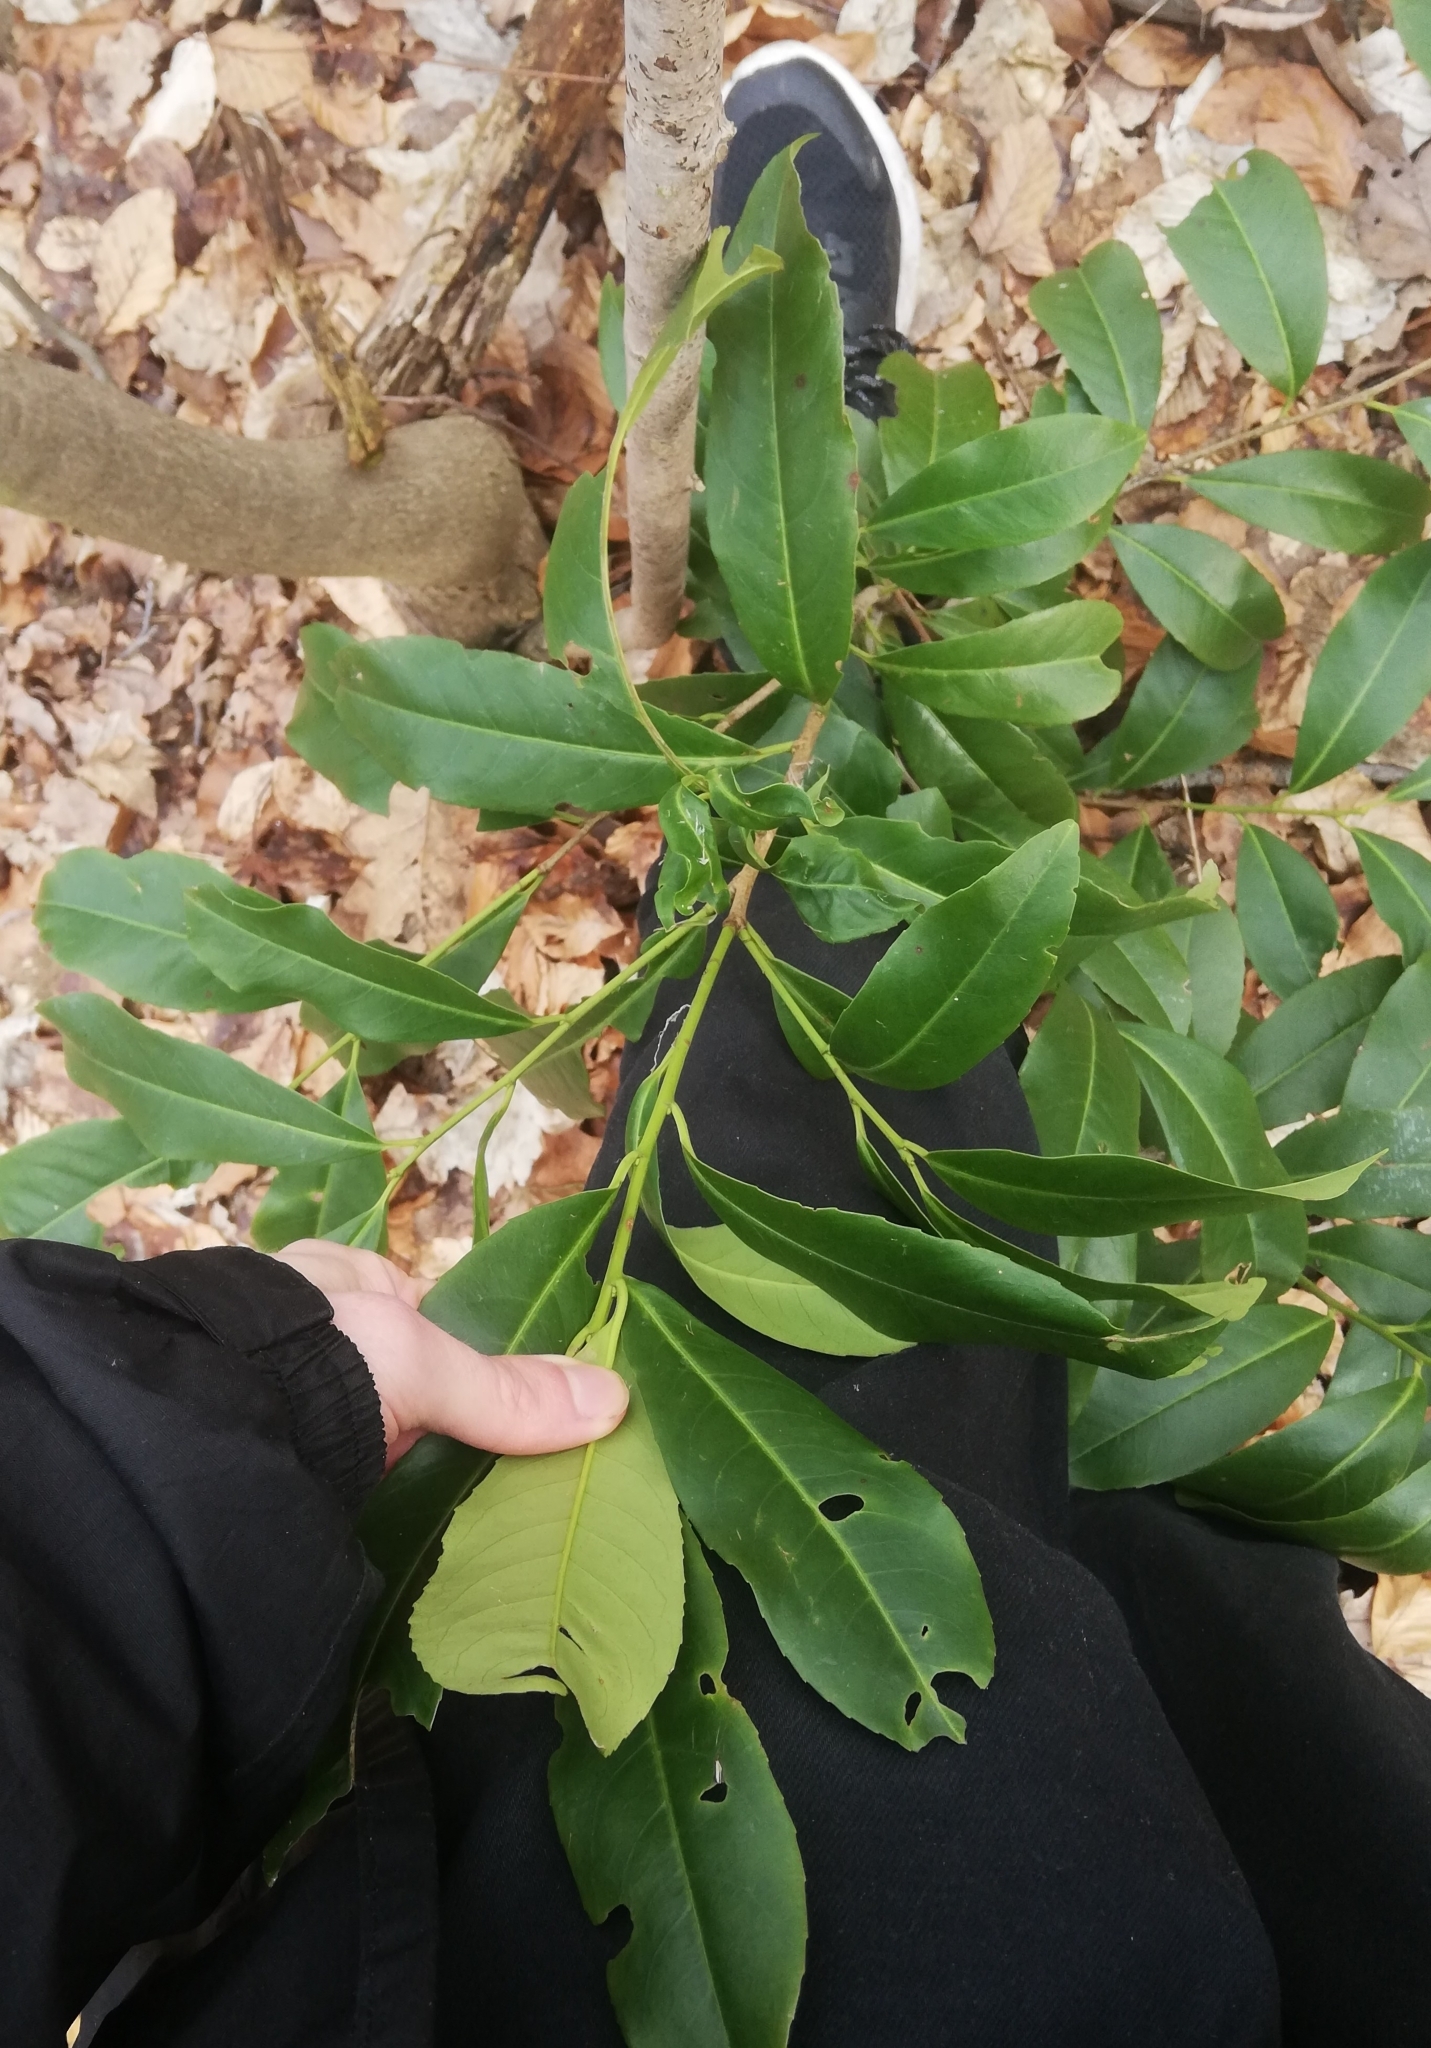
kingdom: Plantae
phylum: Tracheophyta
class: Magnoliopsida
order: Rosales
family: Rosaceae
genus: Prunus
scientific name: Prunus laurocerasus
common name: Cherry laurel
